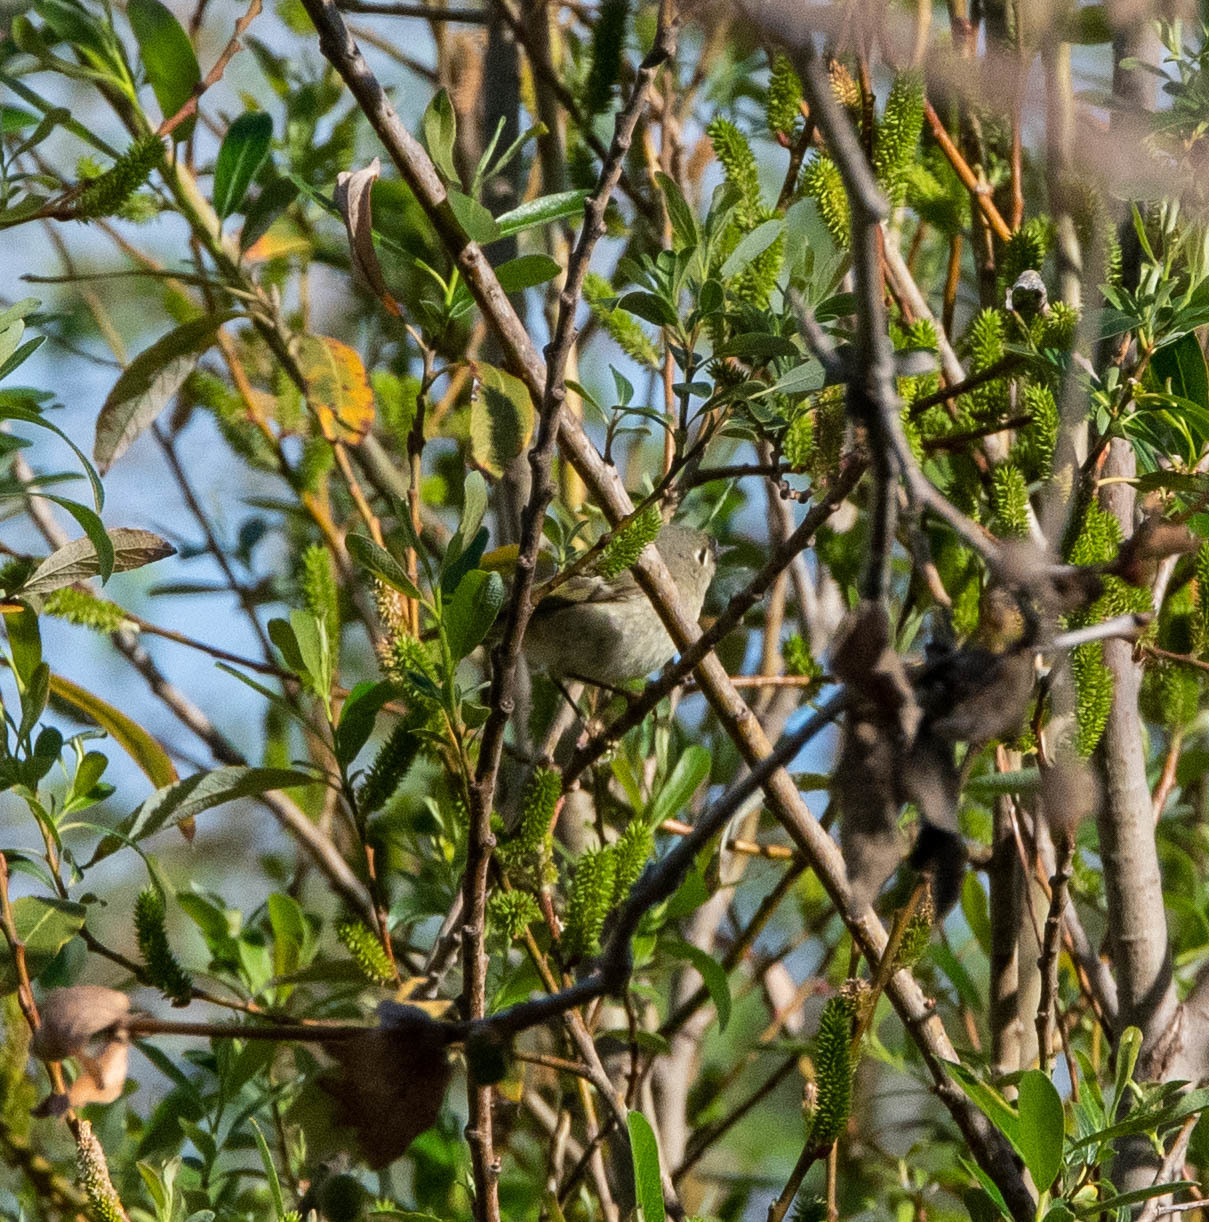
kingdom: Animalia
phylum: Chordata
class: Aves
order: Passeriformes
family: Regulidae
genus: Regulus
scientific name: Regulus calendula
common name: Ruby-crowned kinglet
